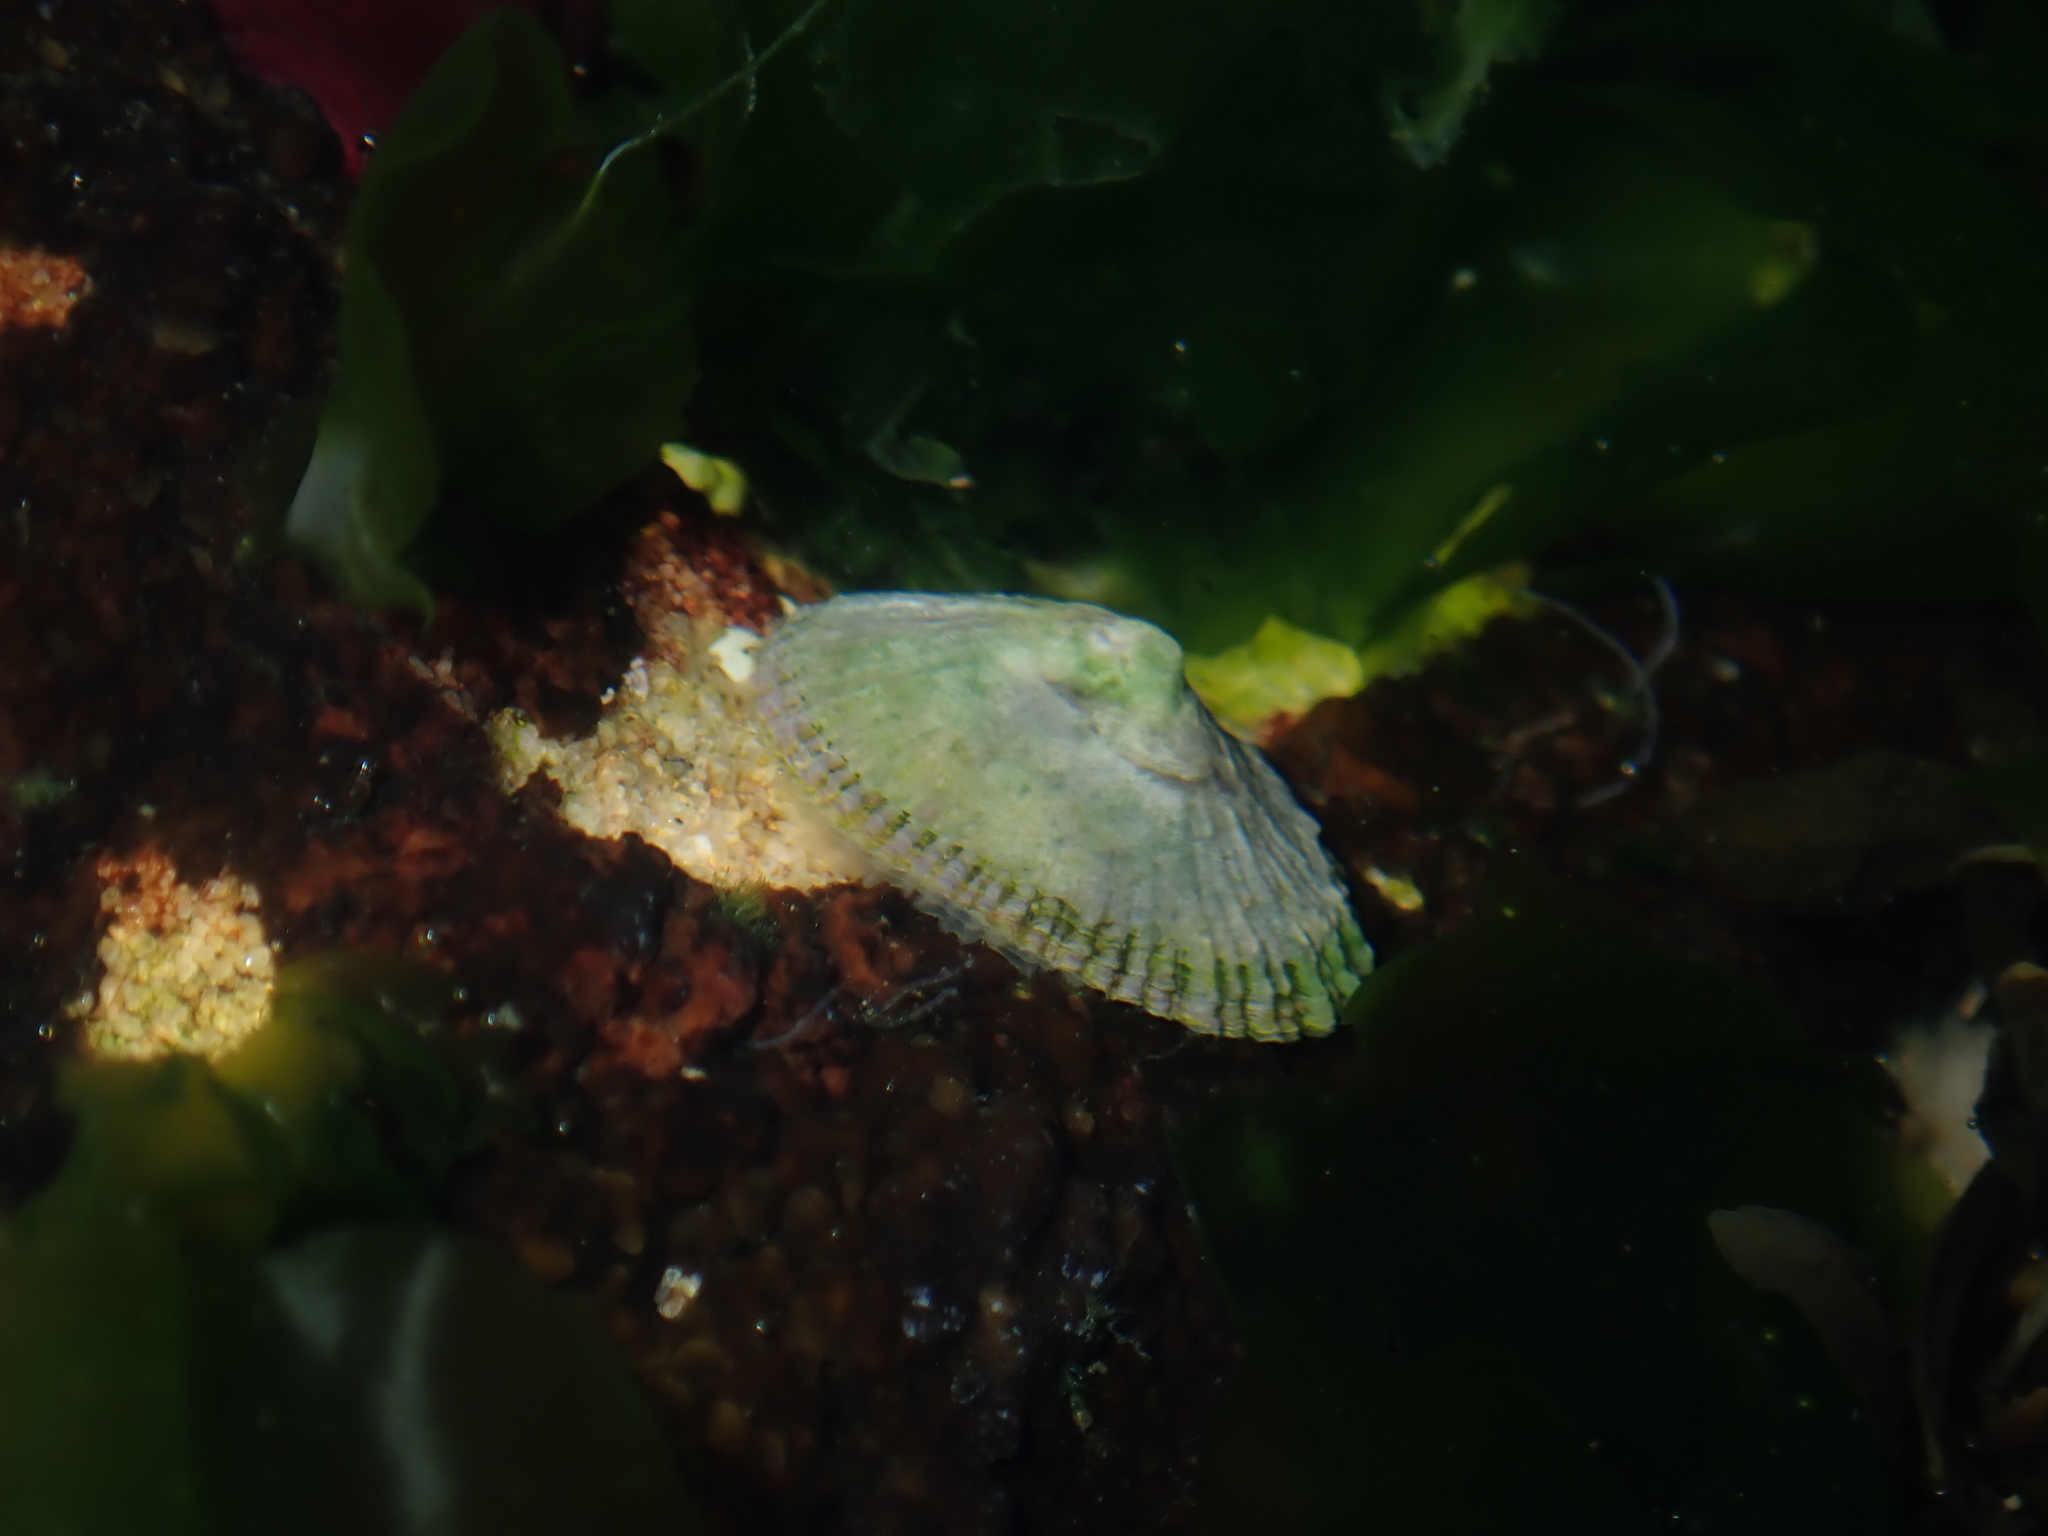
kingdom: Animalia
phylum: Mollusca
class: Gastropoda
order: Lepetellida
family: Fissurellidae
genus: Montfortula
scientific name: Montfortula rugosa
